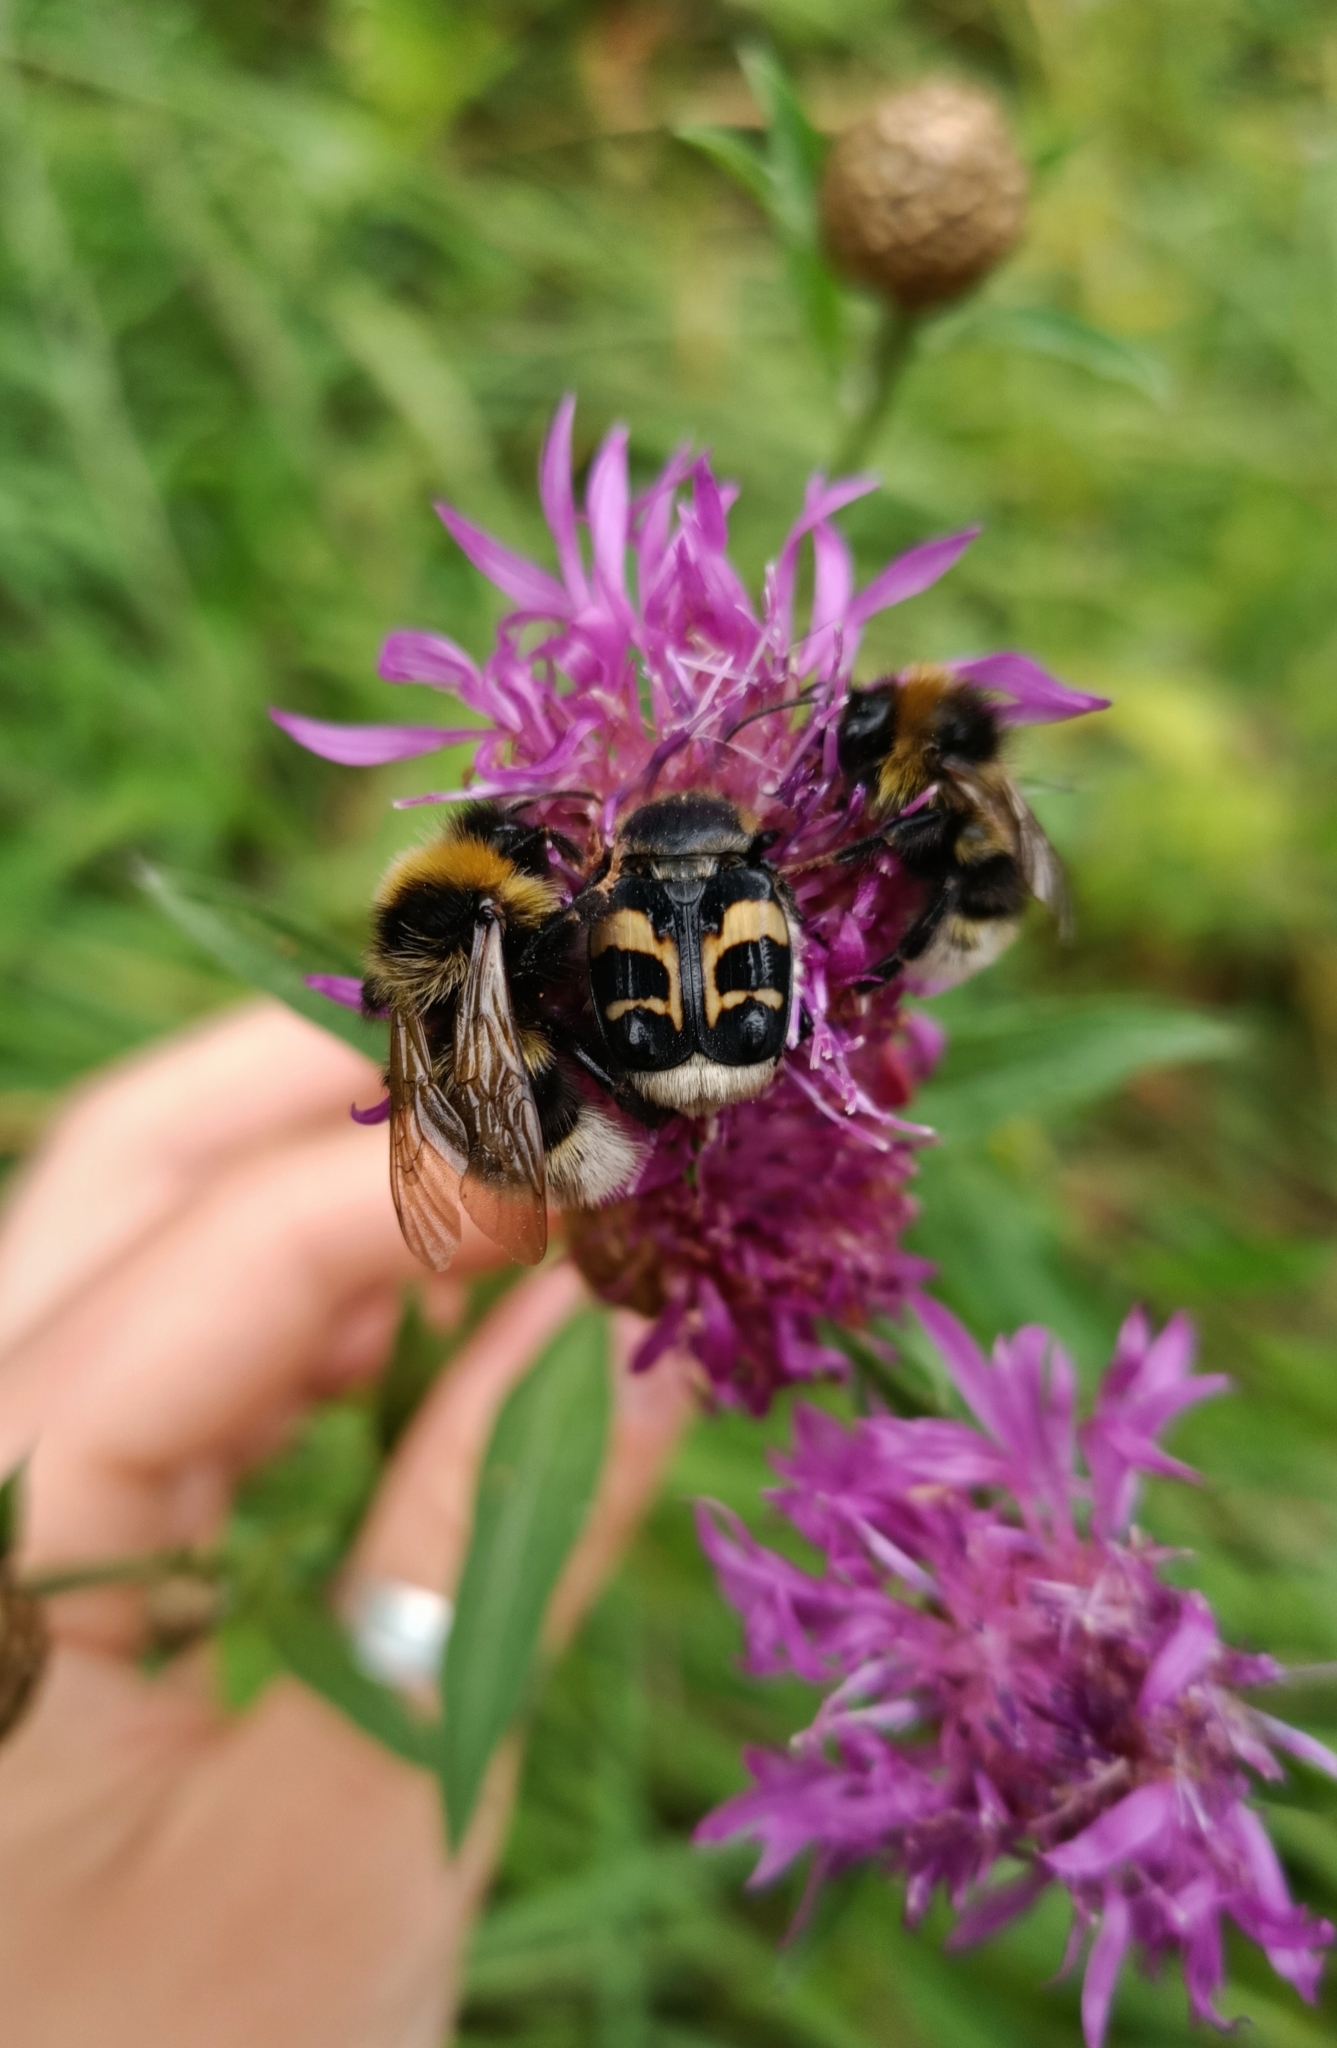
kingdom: Animalia
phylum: Arthropoda
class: Insecta
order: Coleoptera
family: Scarabaeidae
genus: Trichius
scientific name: Trichius fasciatus
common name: Bee beetle
